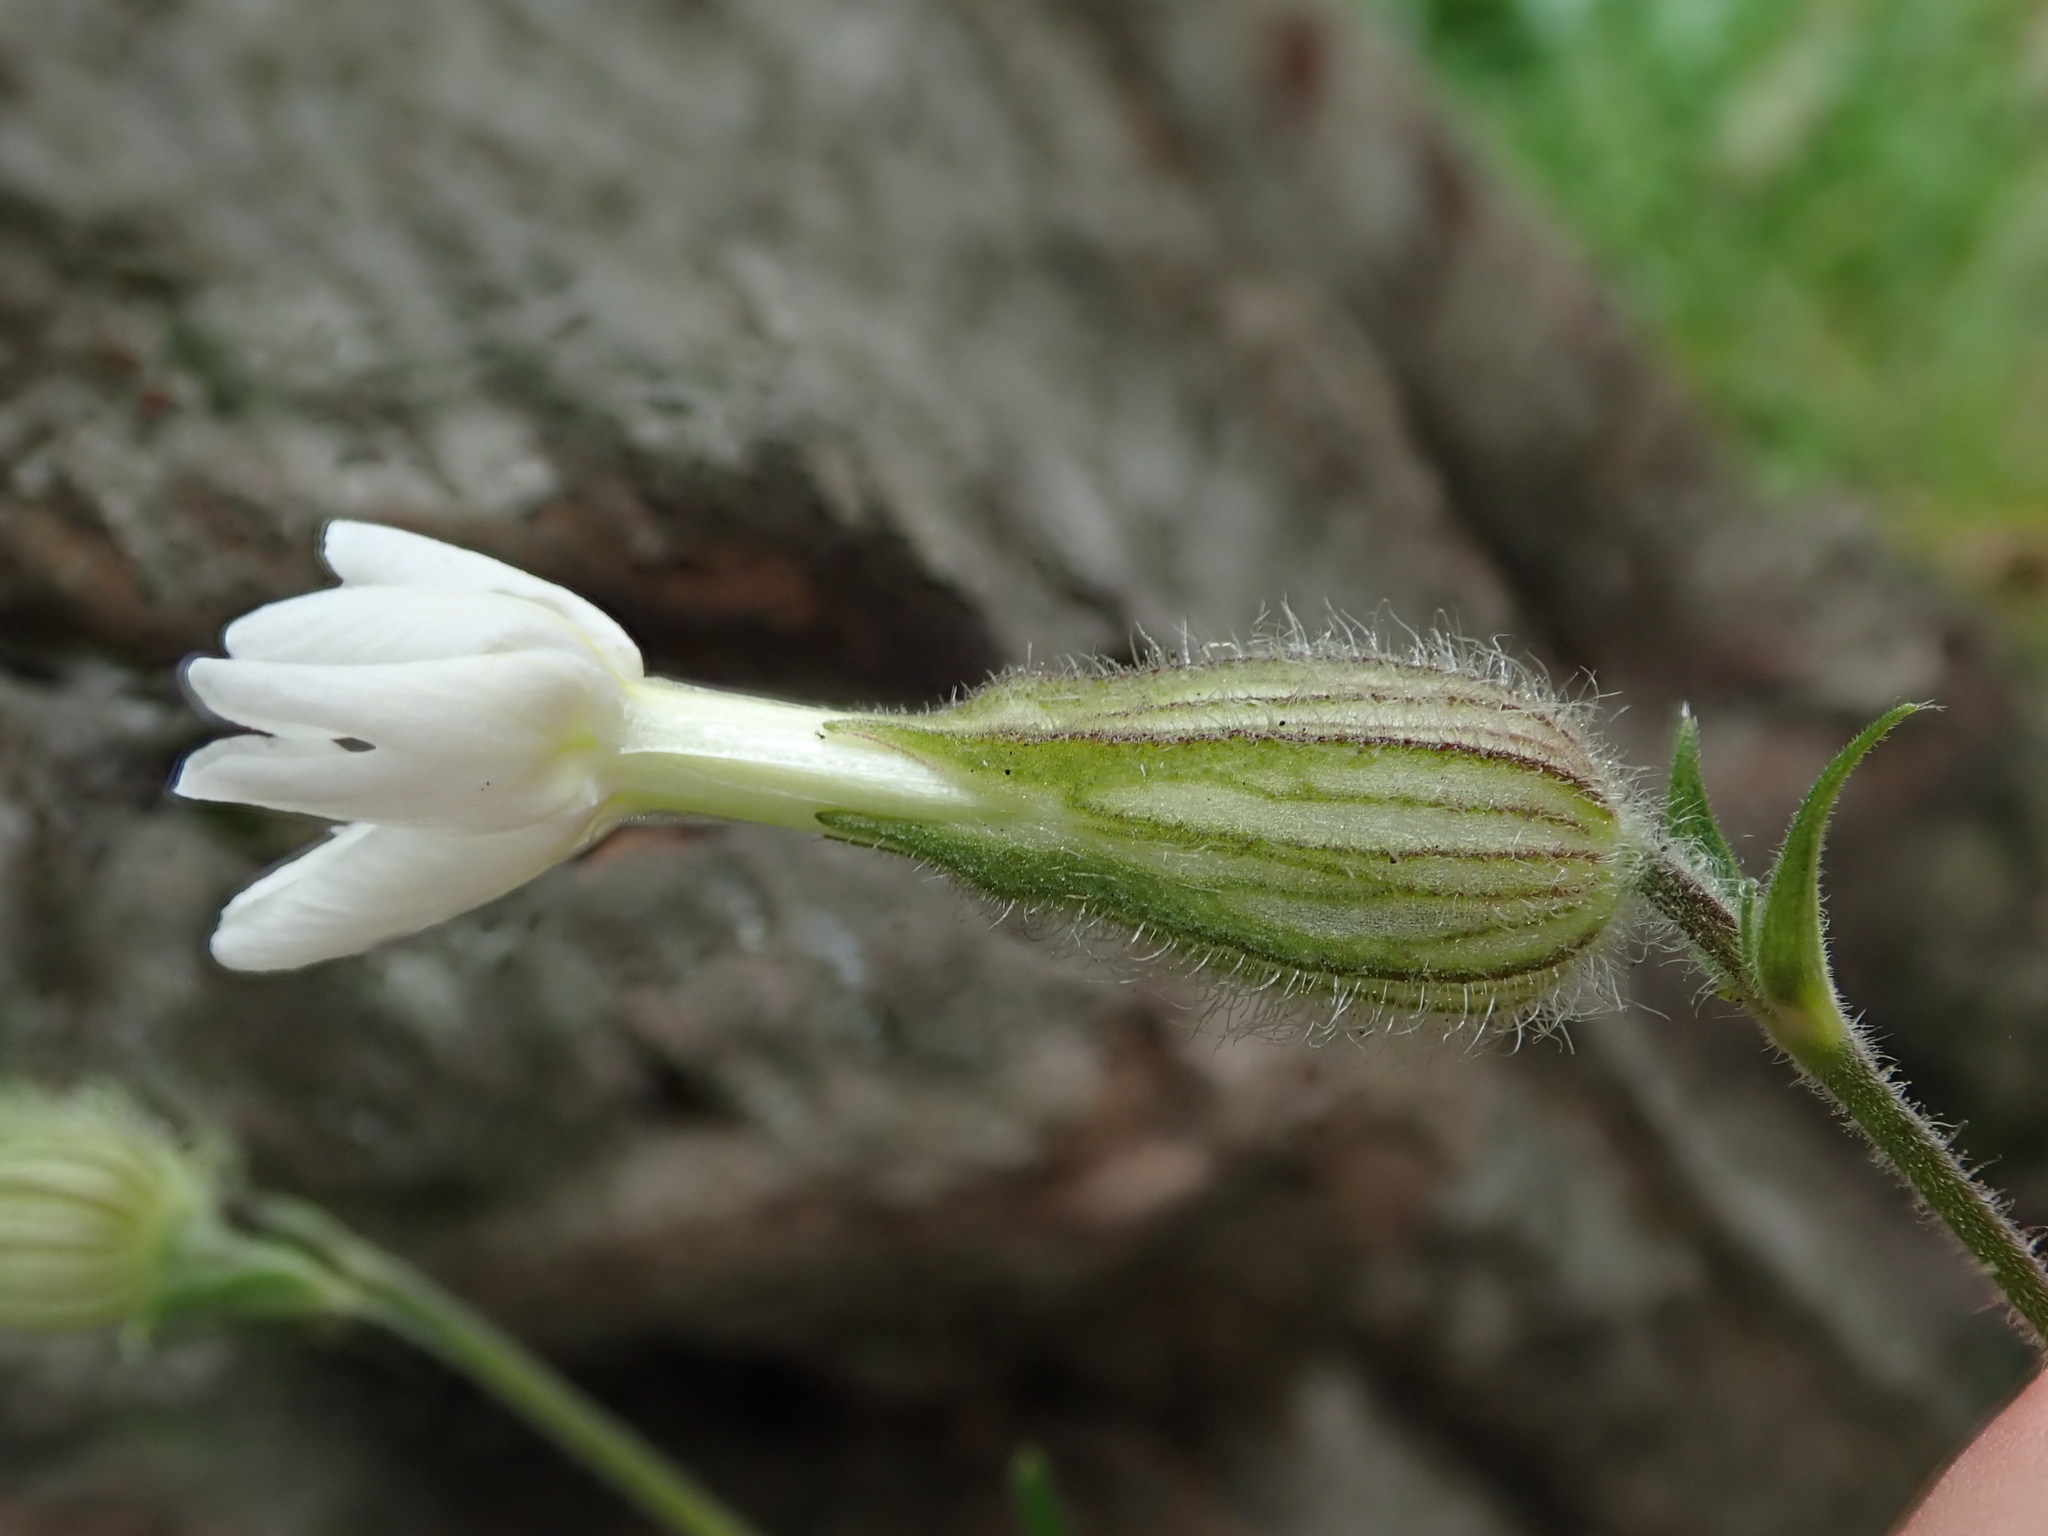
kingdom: Plantae
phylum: Tracheophyta
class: Magnoliopsida
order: Caryophyllales
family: Caryophyllaceae
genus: Silene
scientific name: Silene latifolia
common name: White campion
